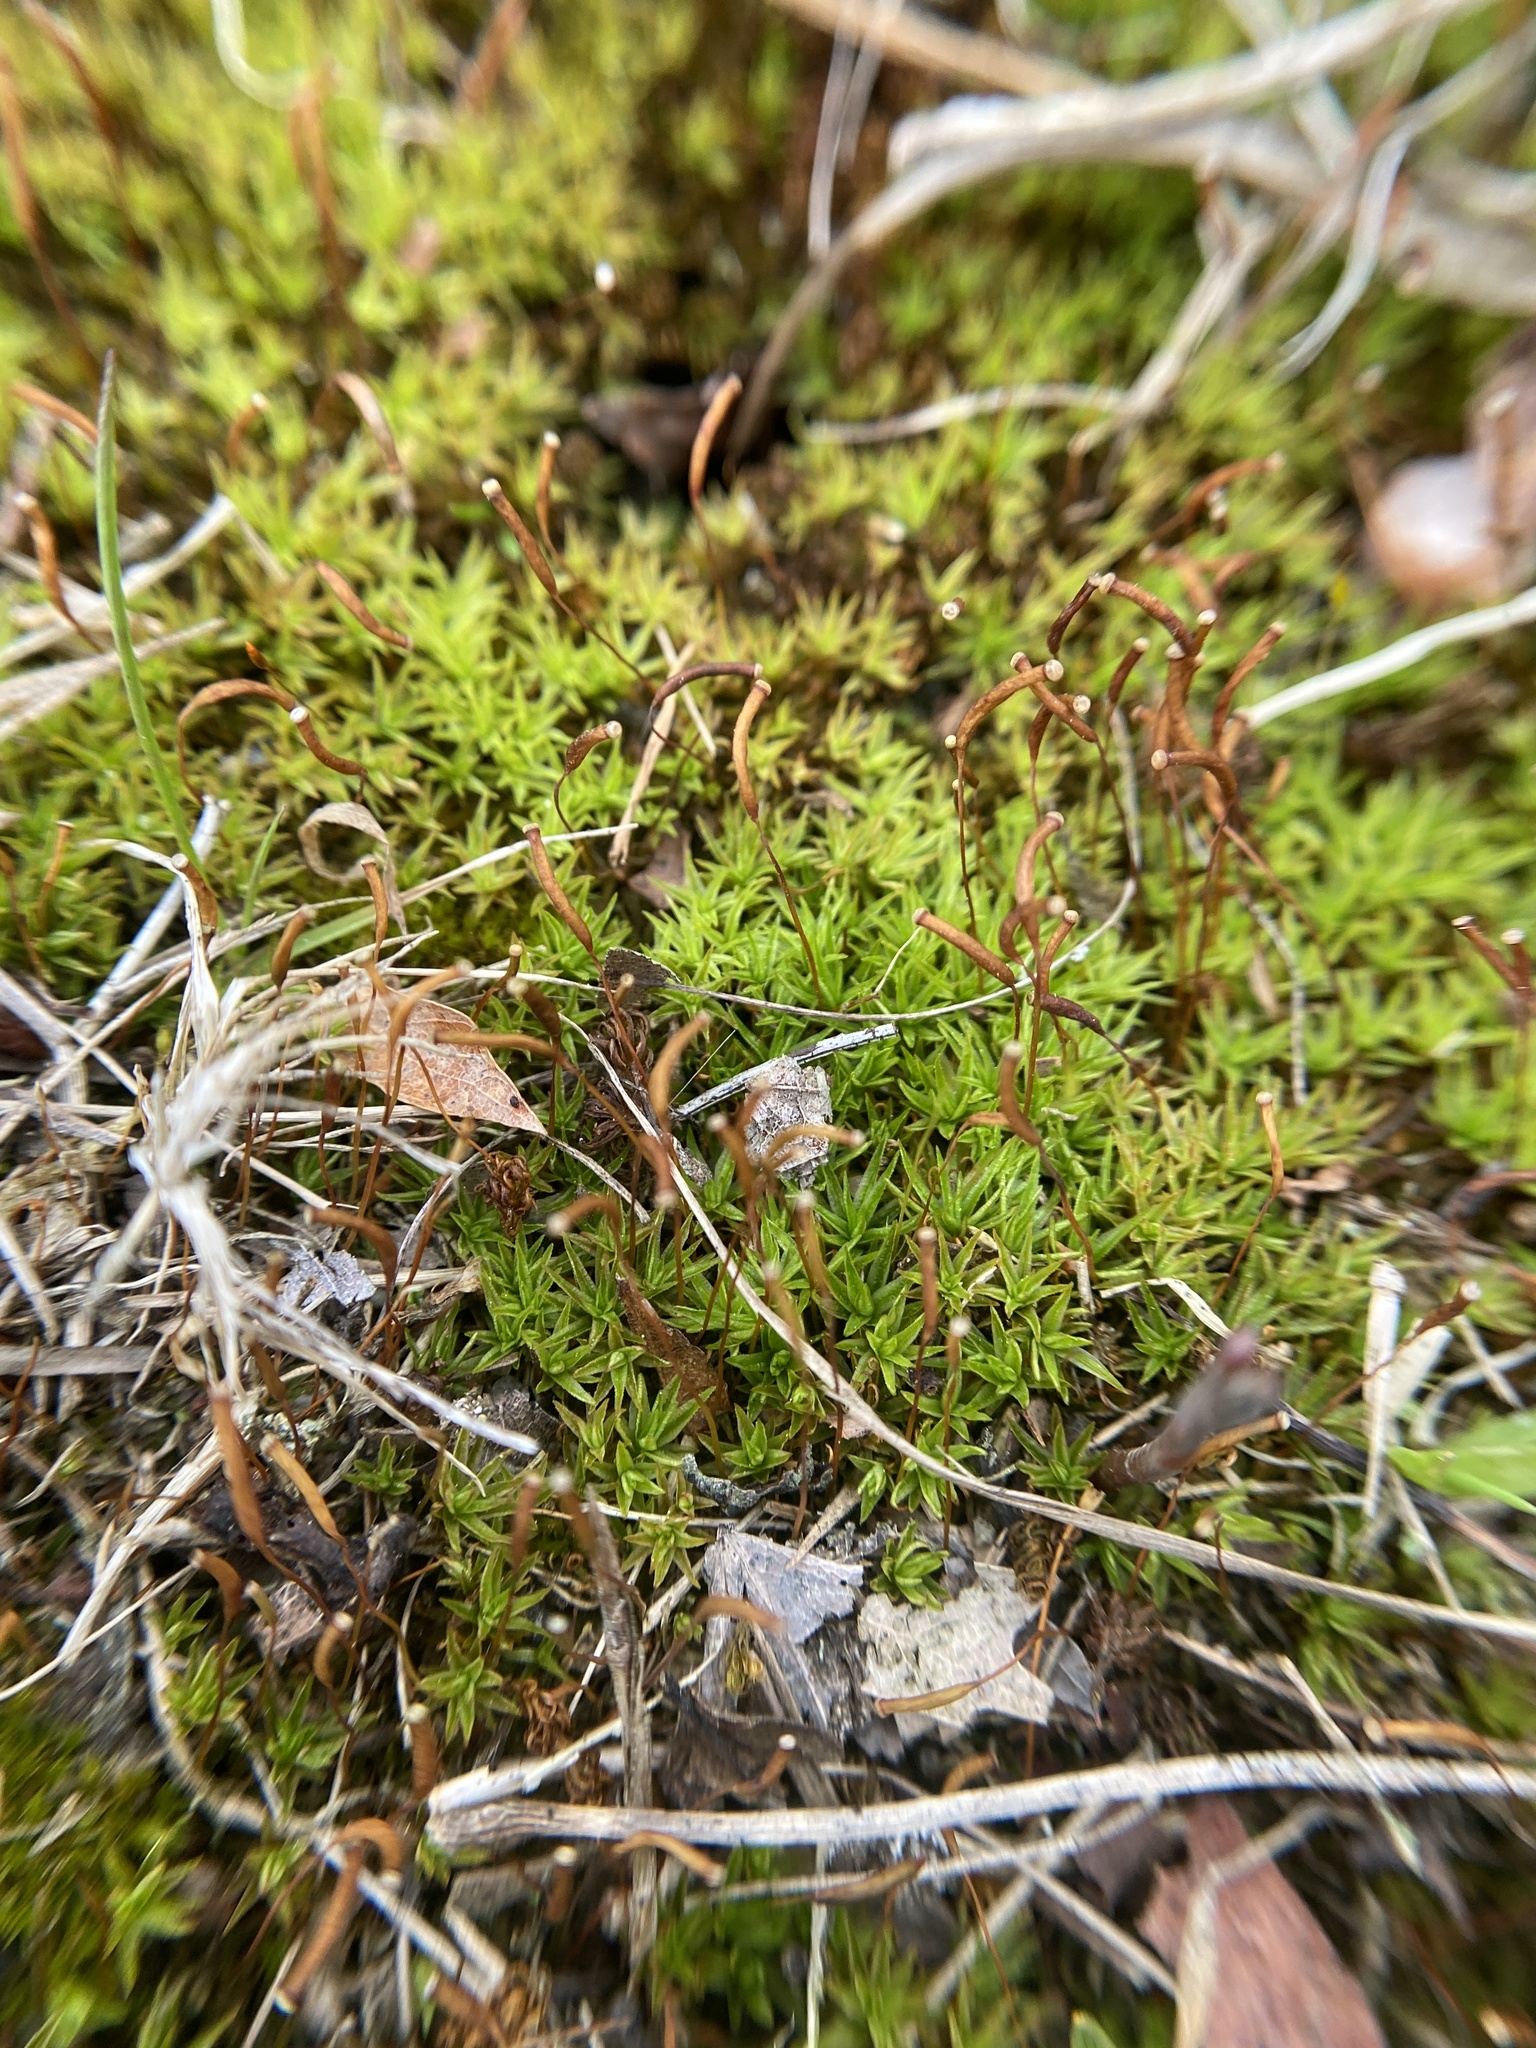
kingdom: Plantae
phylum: Bryophyta
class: Polytrichopsida
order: Polytrichales
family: Polytrichaceae
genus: Atrichum
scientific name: Atrichum angustatum
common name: Lesser smoothcap
